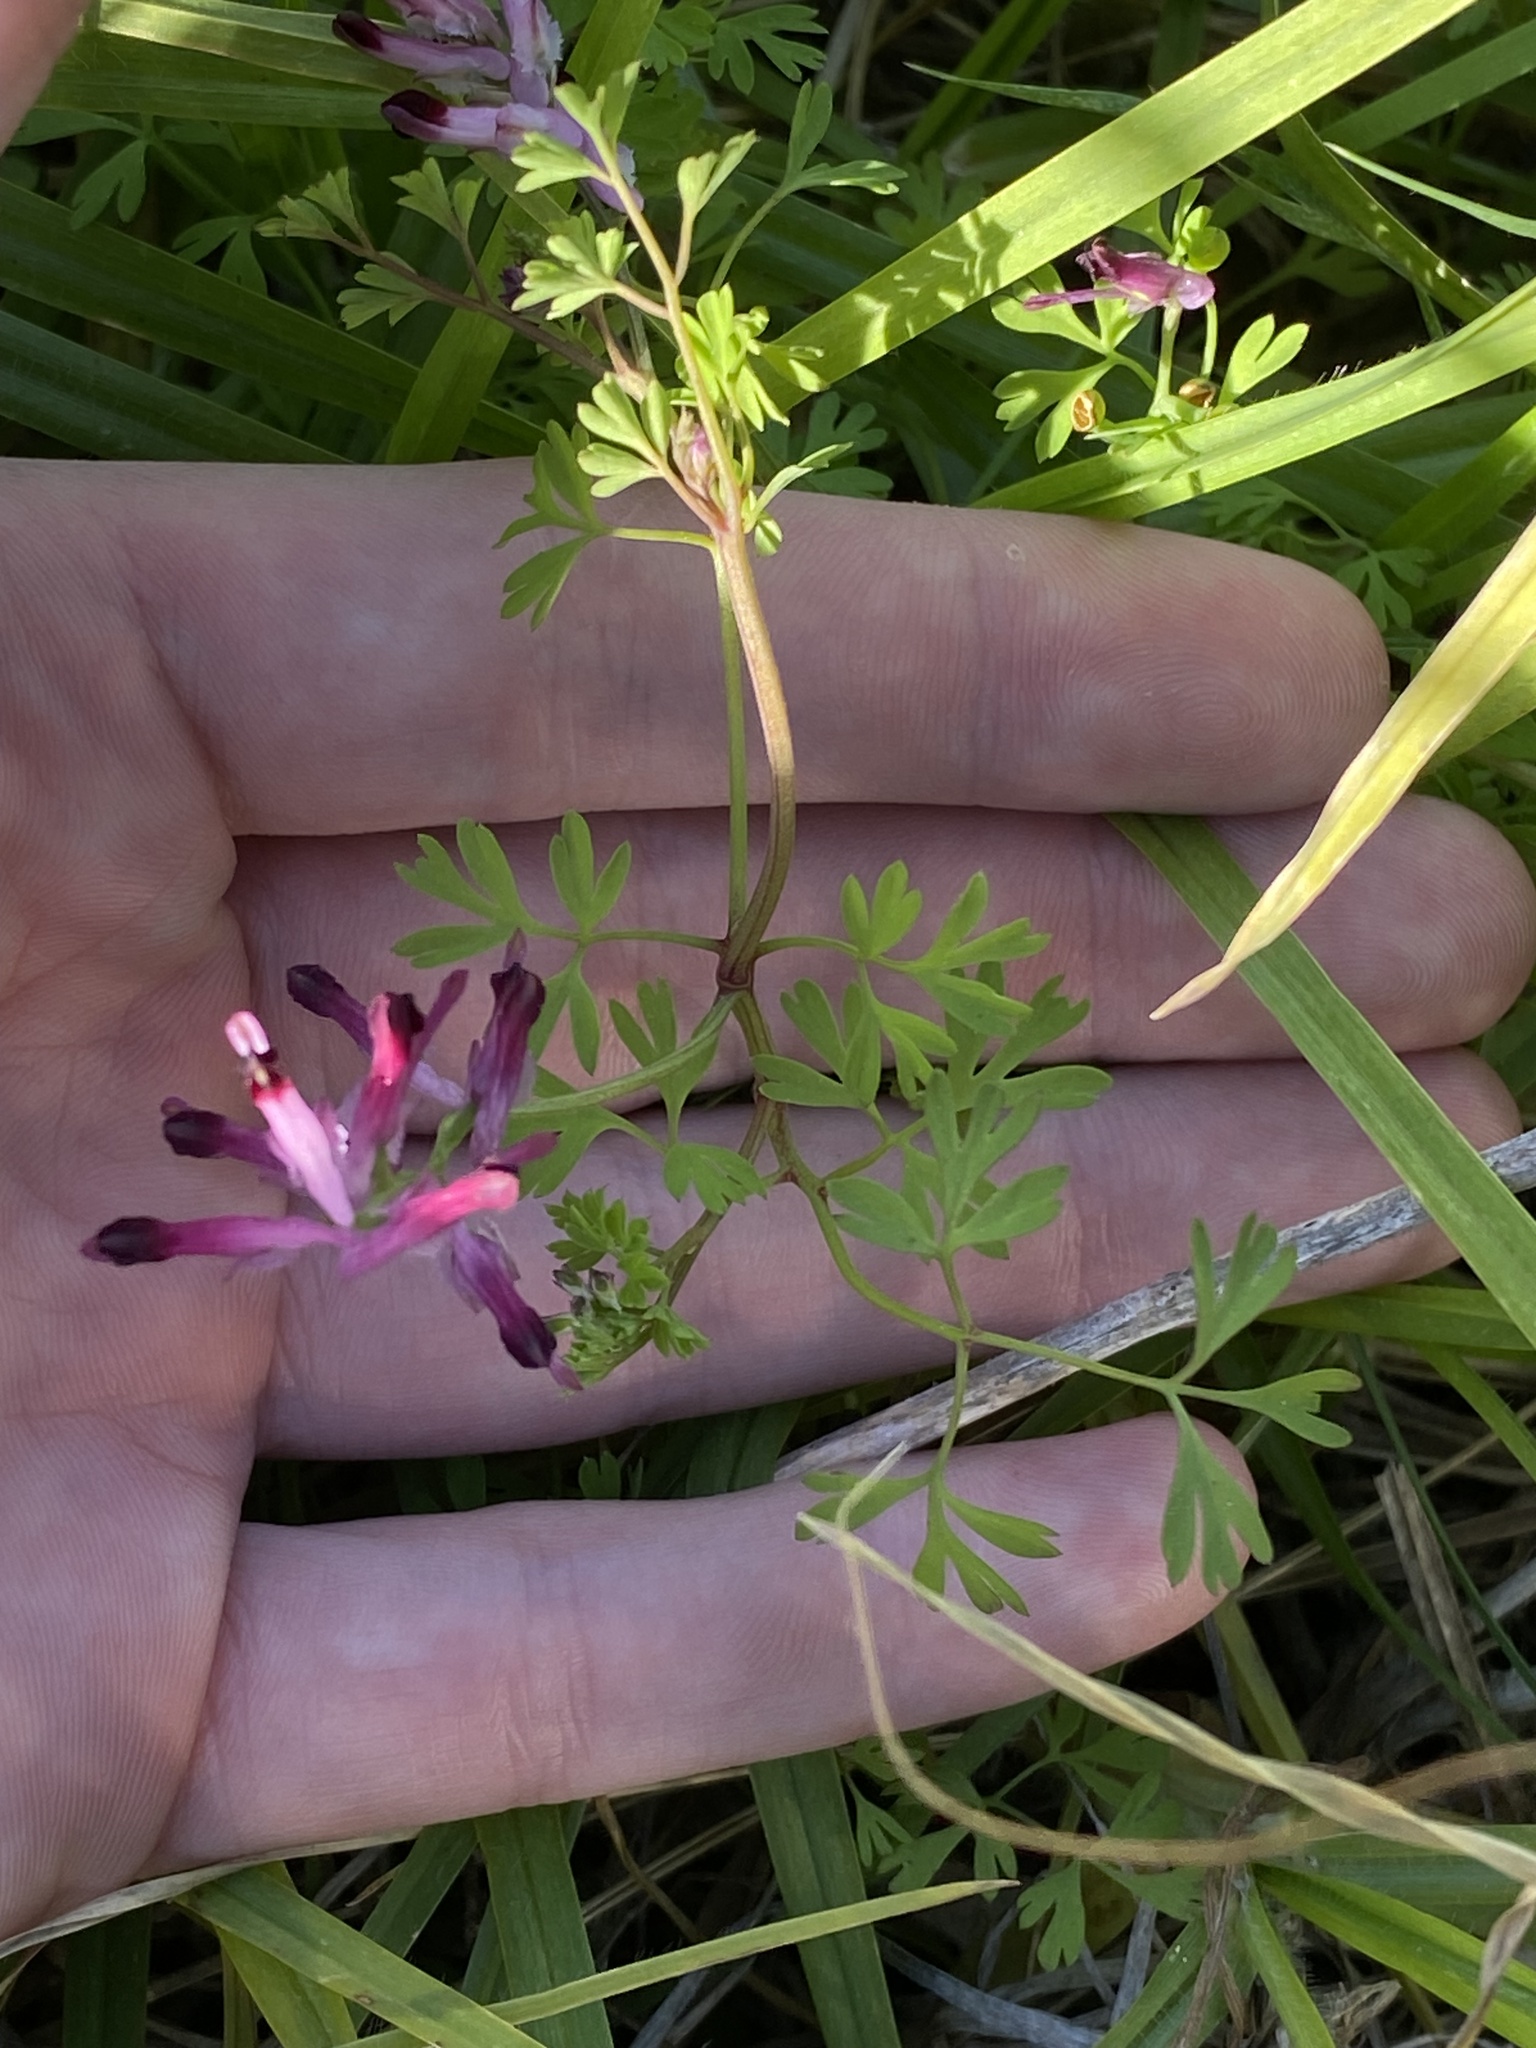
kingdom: Plantae
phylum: Tracheophyta
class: Magnoliopsida
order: Ranunculales
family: Papaveraceae
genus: Fumaria
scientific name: Fumaria muralis
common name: Common ramping-fumitory
